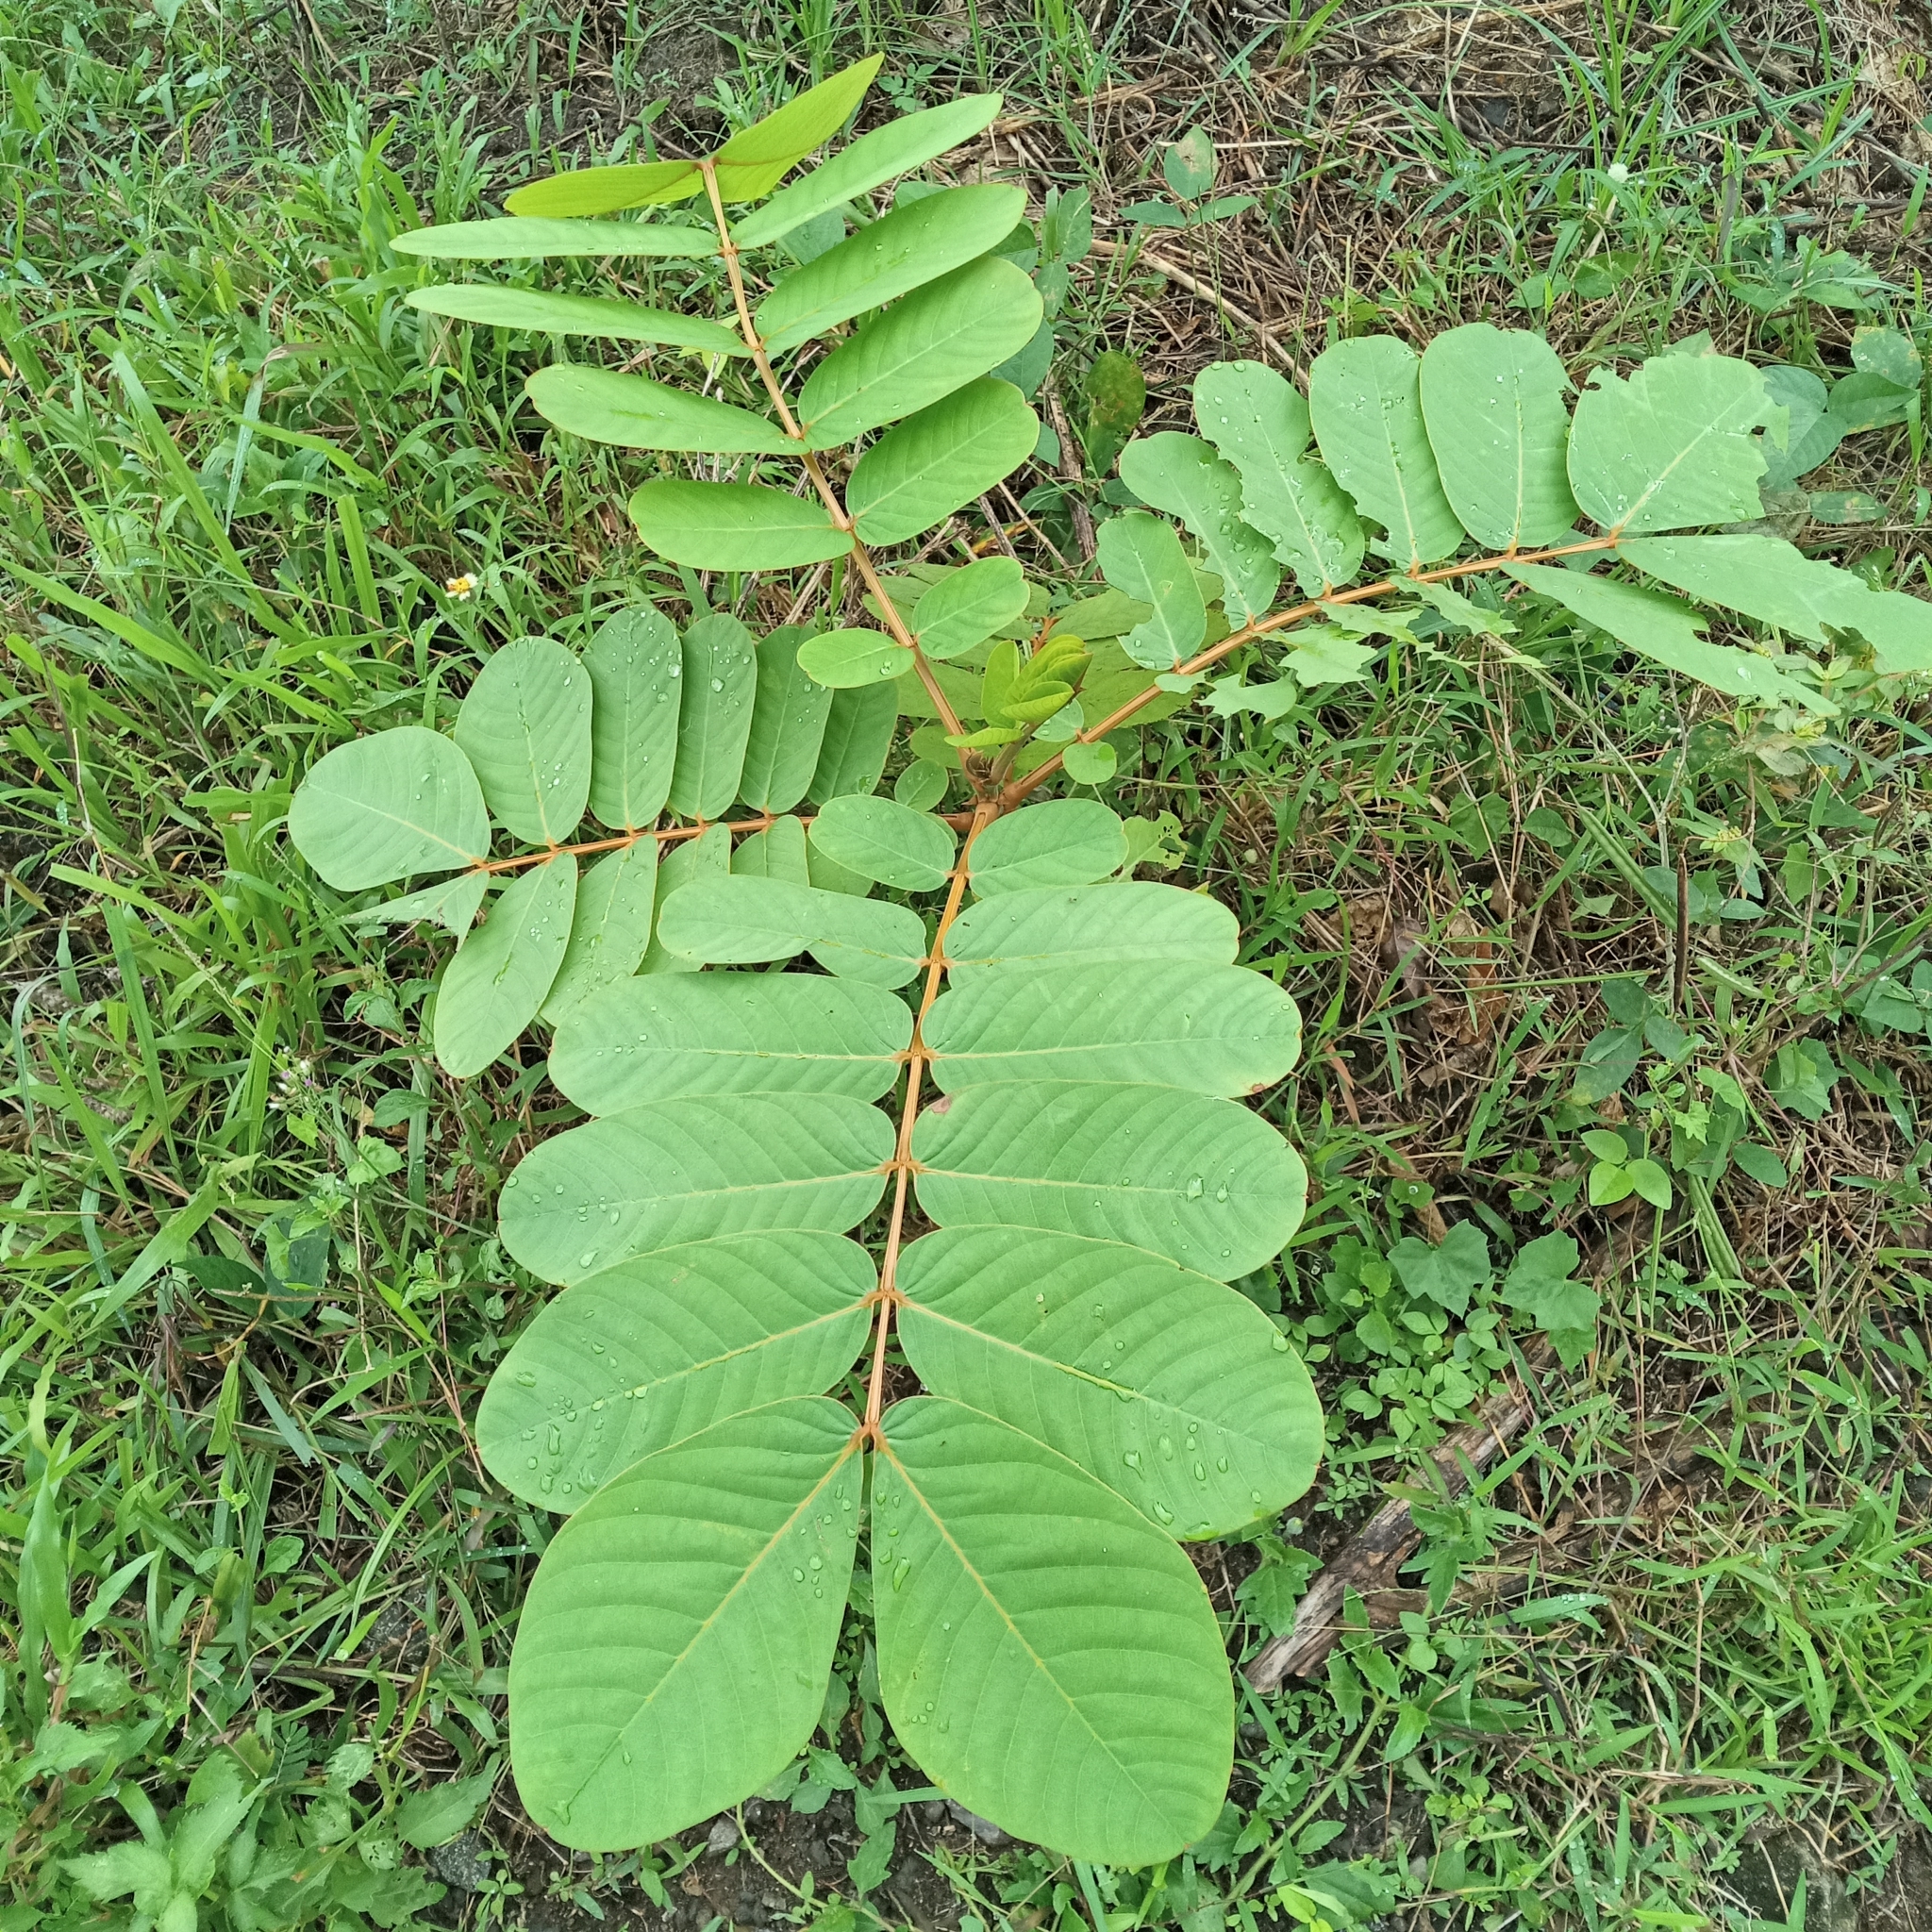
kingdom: Plantae
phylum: Tracheophyta
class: Magnoliopsida
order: Fabales
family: Fabaceae
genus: Senna
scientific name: Senna alata
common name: Emperor's candlesticks
